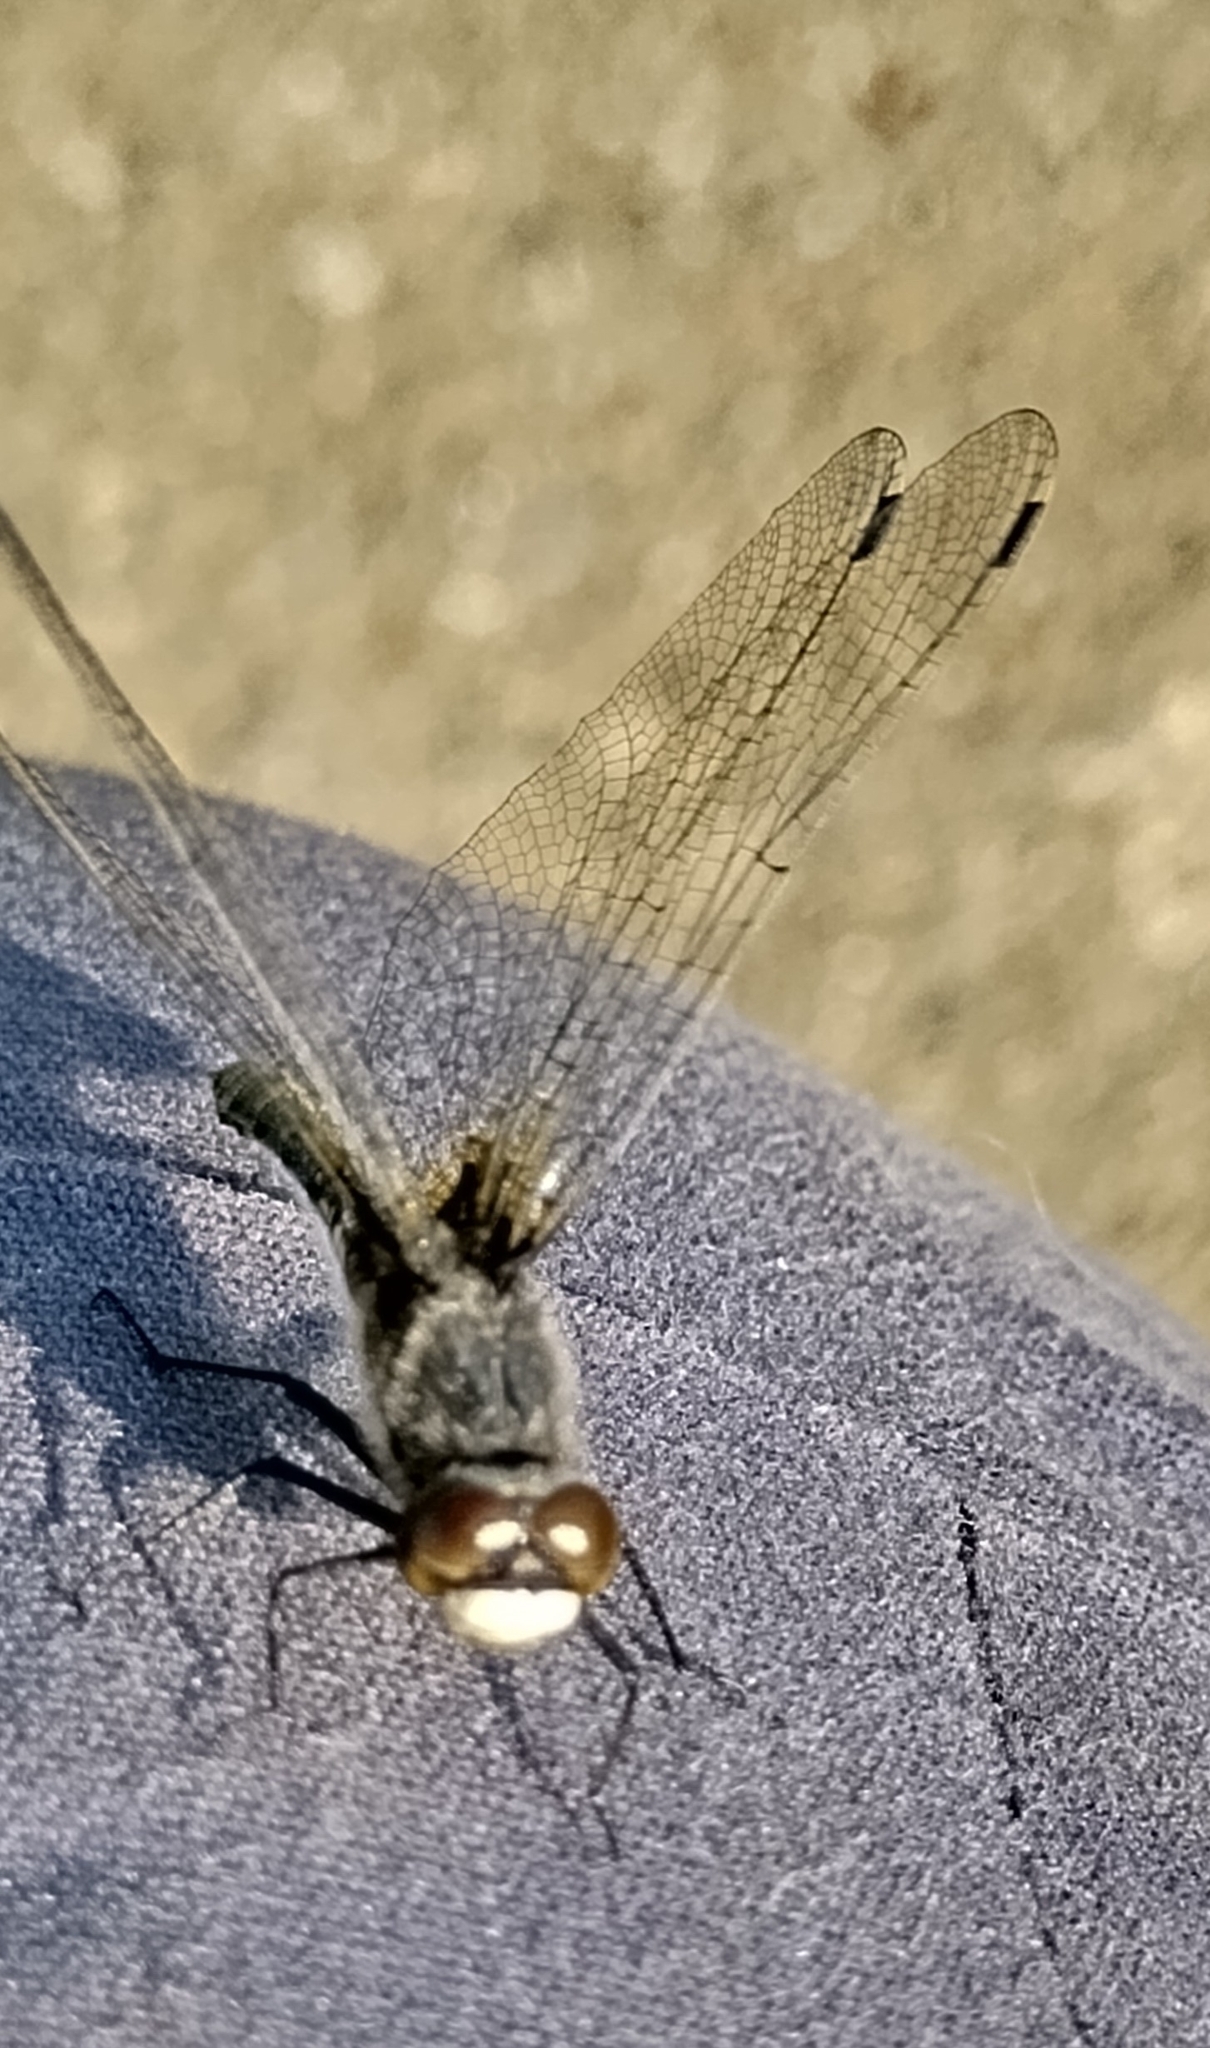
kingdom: Animalia
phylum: Arthropoda
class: Insecta
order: Odonata
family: Libellulidae
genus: Leucorrhinia
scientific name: Leucorrhinia intacta
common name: Dot-tailed whiteface
